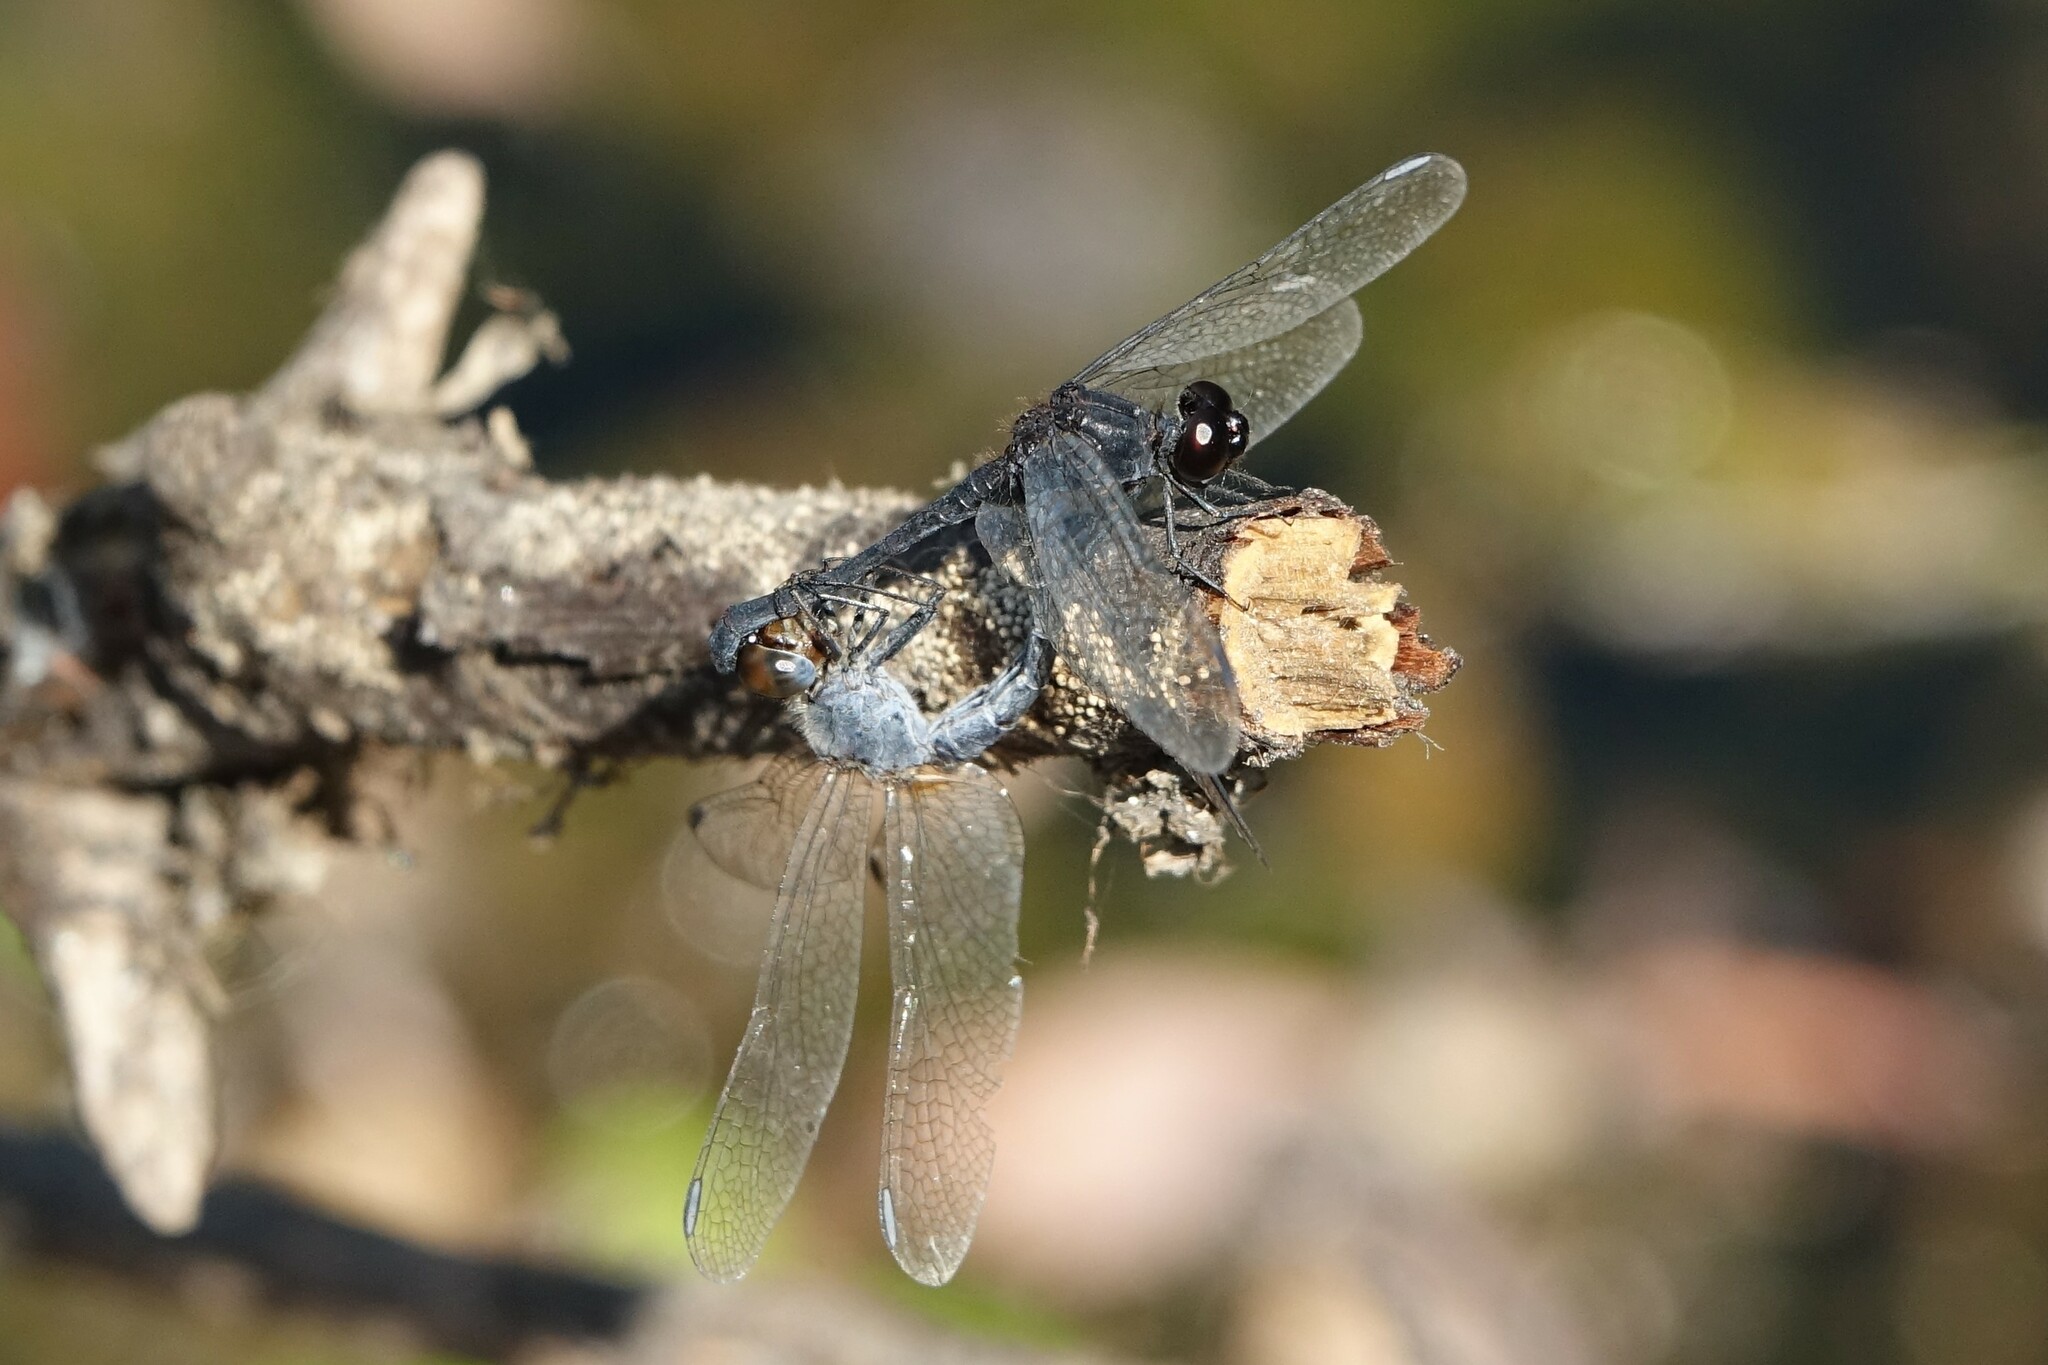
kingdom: Animalia
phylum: Arthropoda
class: Insecta
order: Odonata
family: Libellulidae
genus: Diplacodes
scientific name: Diplacodes lefebvrii
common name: Black percher
